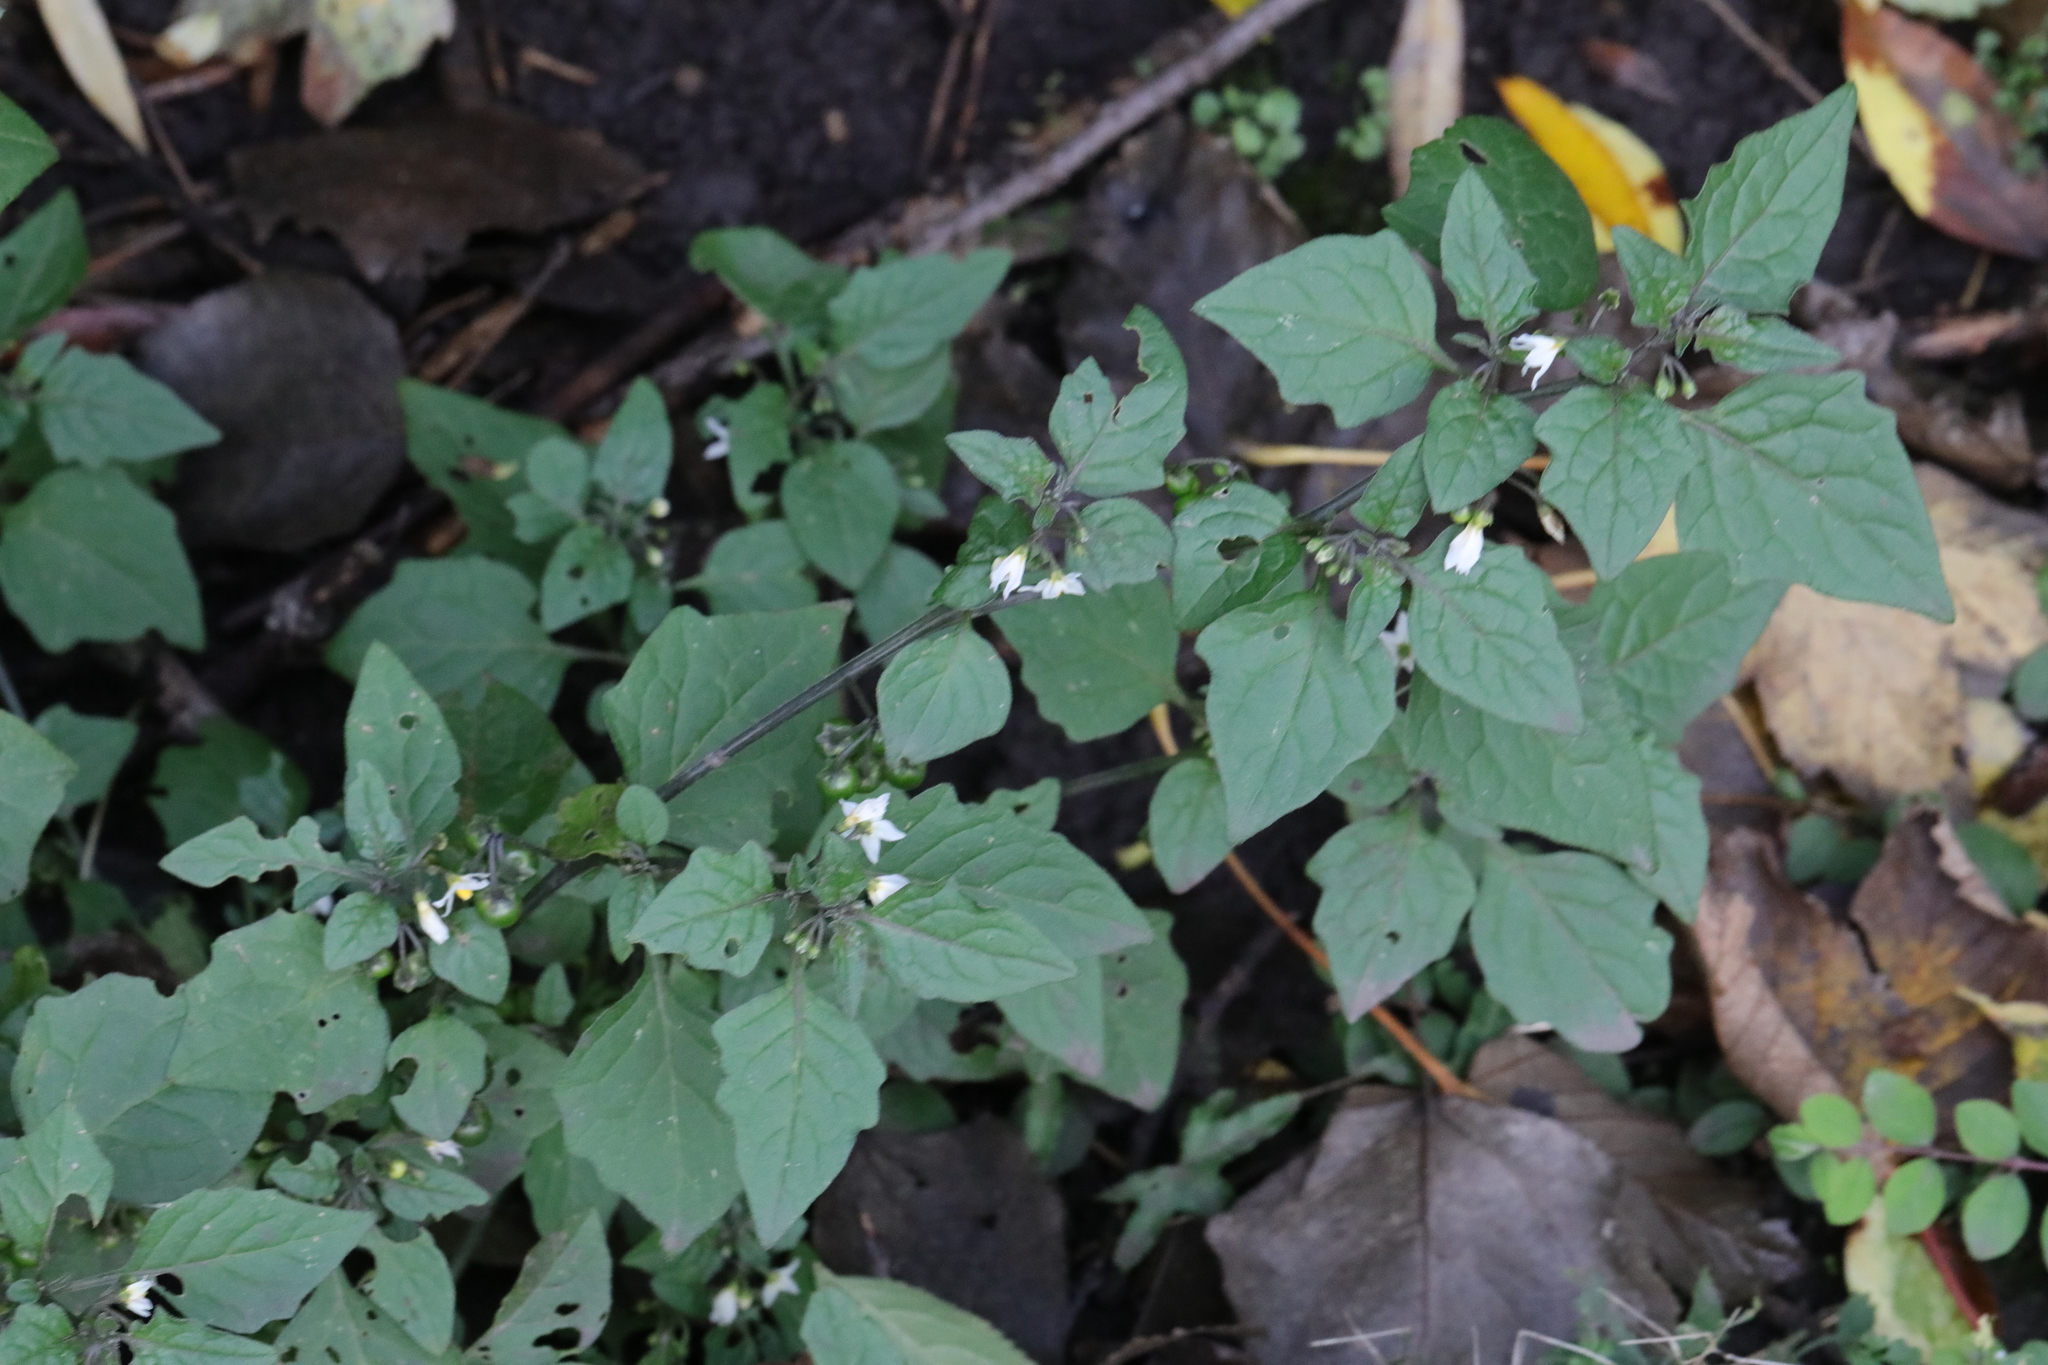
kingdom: Plantae
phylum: Tracheophyta
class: Magnoliopsida
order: Solanales
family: Solanaceae
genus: Solanum
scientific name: Solanum nigrum
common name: Black nightshade
